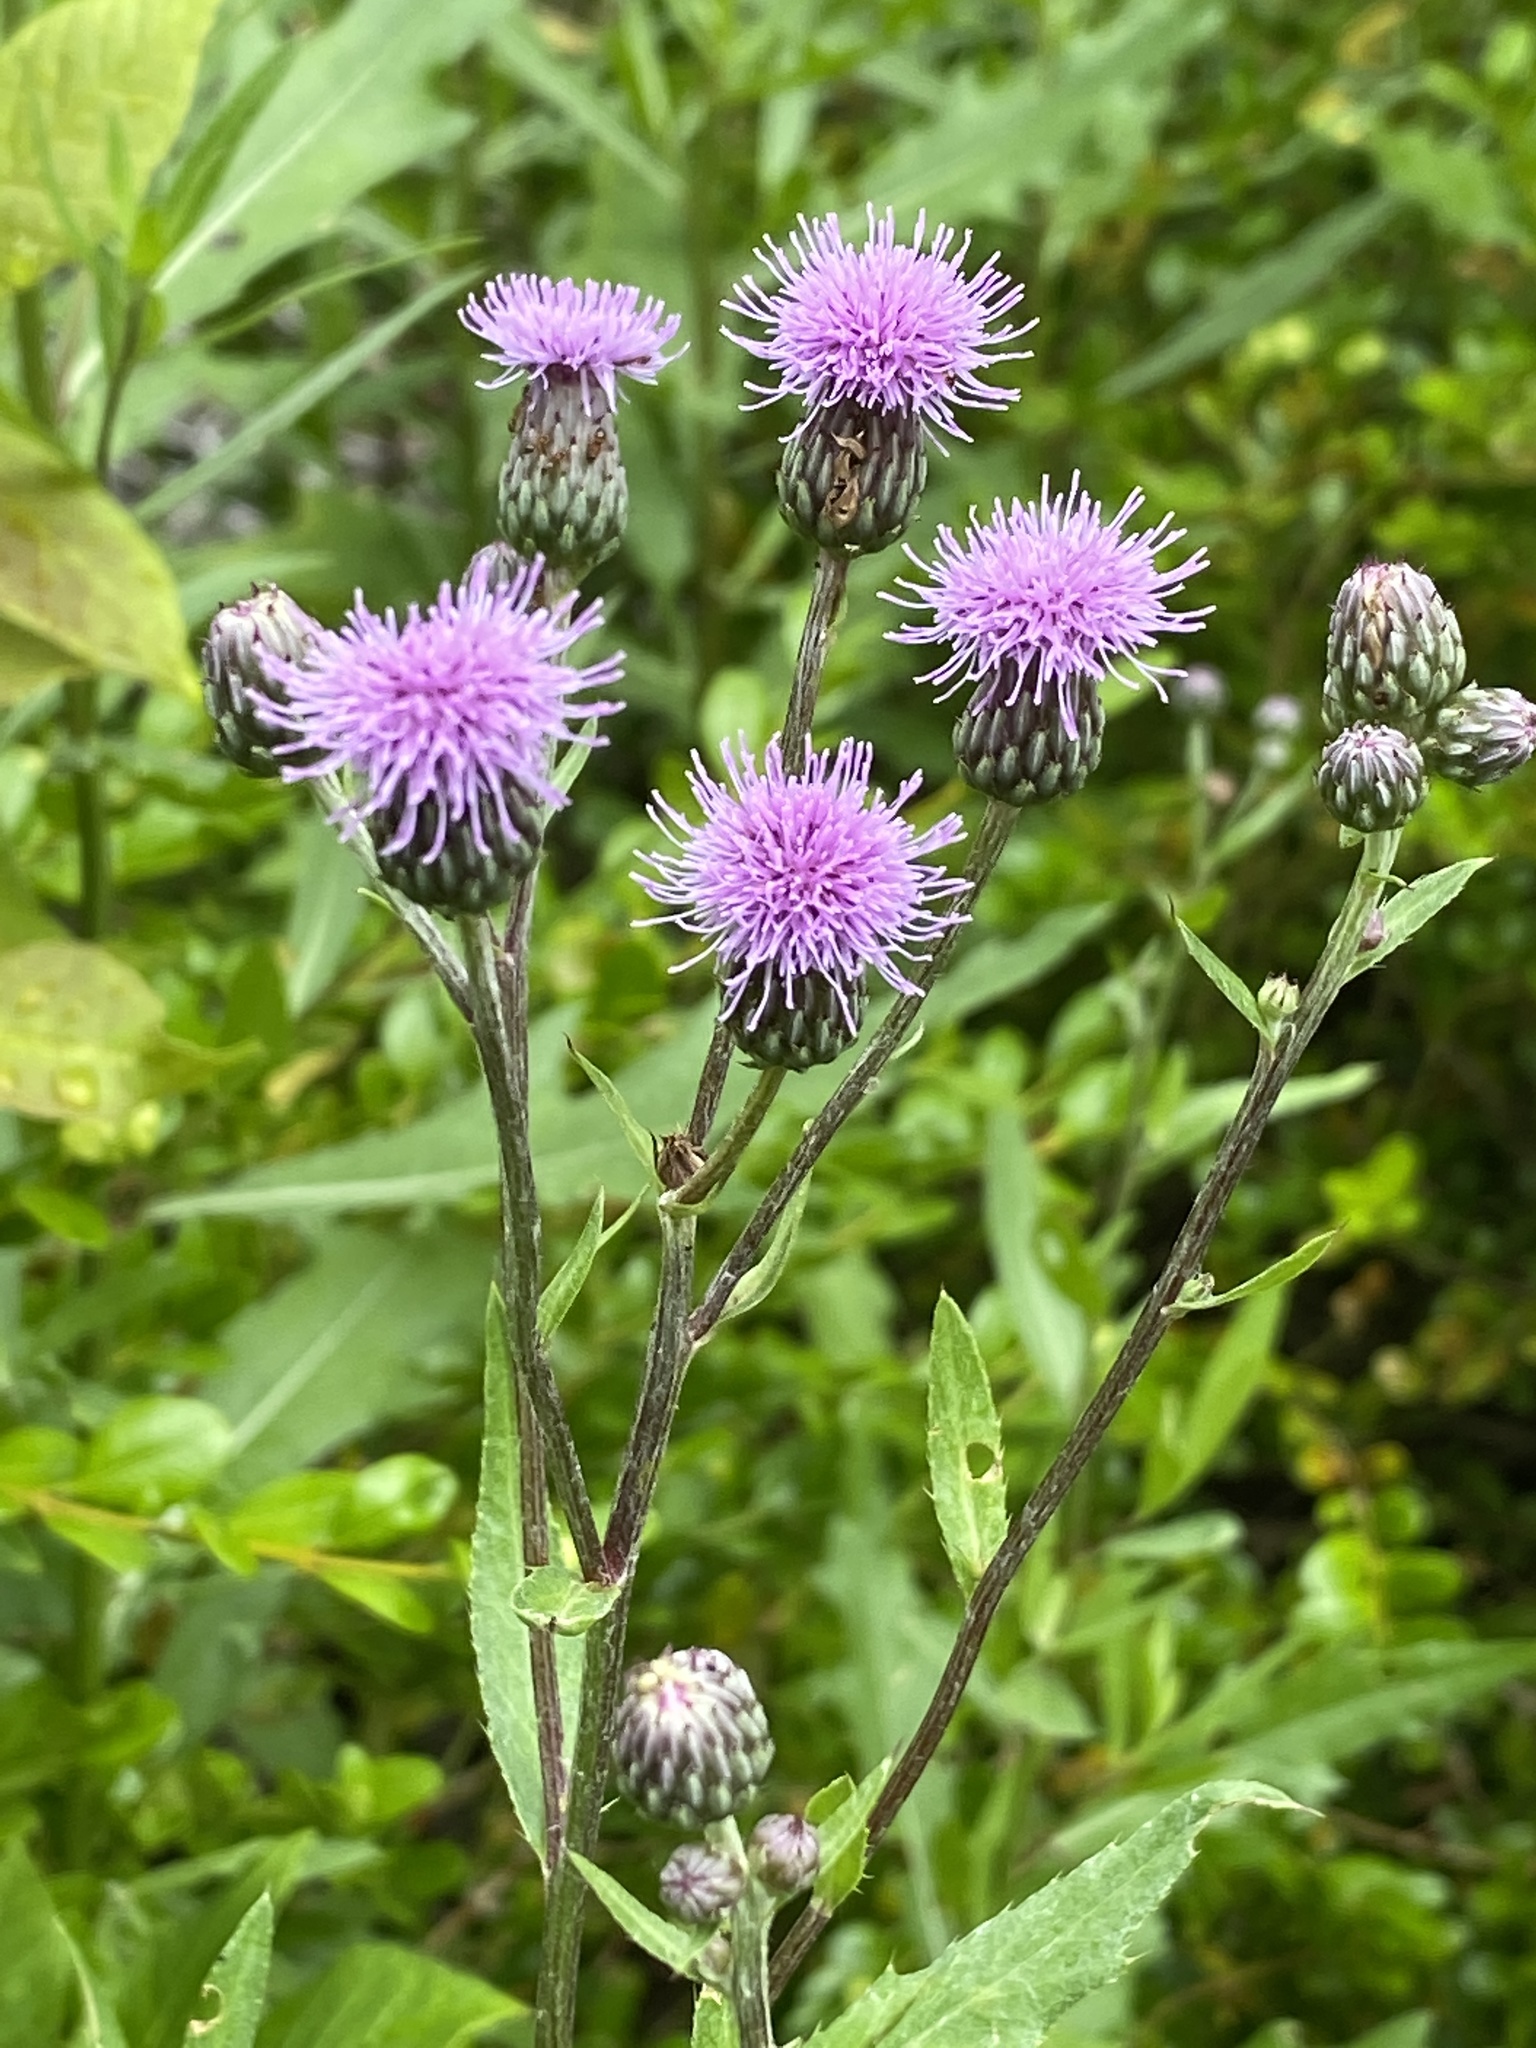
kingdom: Plantae
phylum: Tracheophyta
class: Magnoliopsida
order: Asterales
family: Asteraceae
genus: Cirsium
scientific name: Cirsium arvense
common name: Creeping thistle
